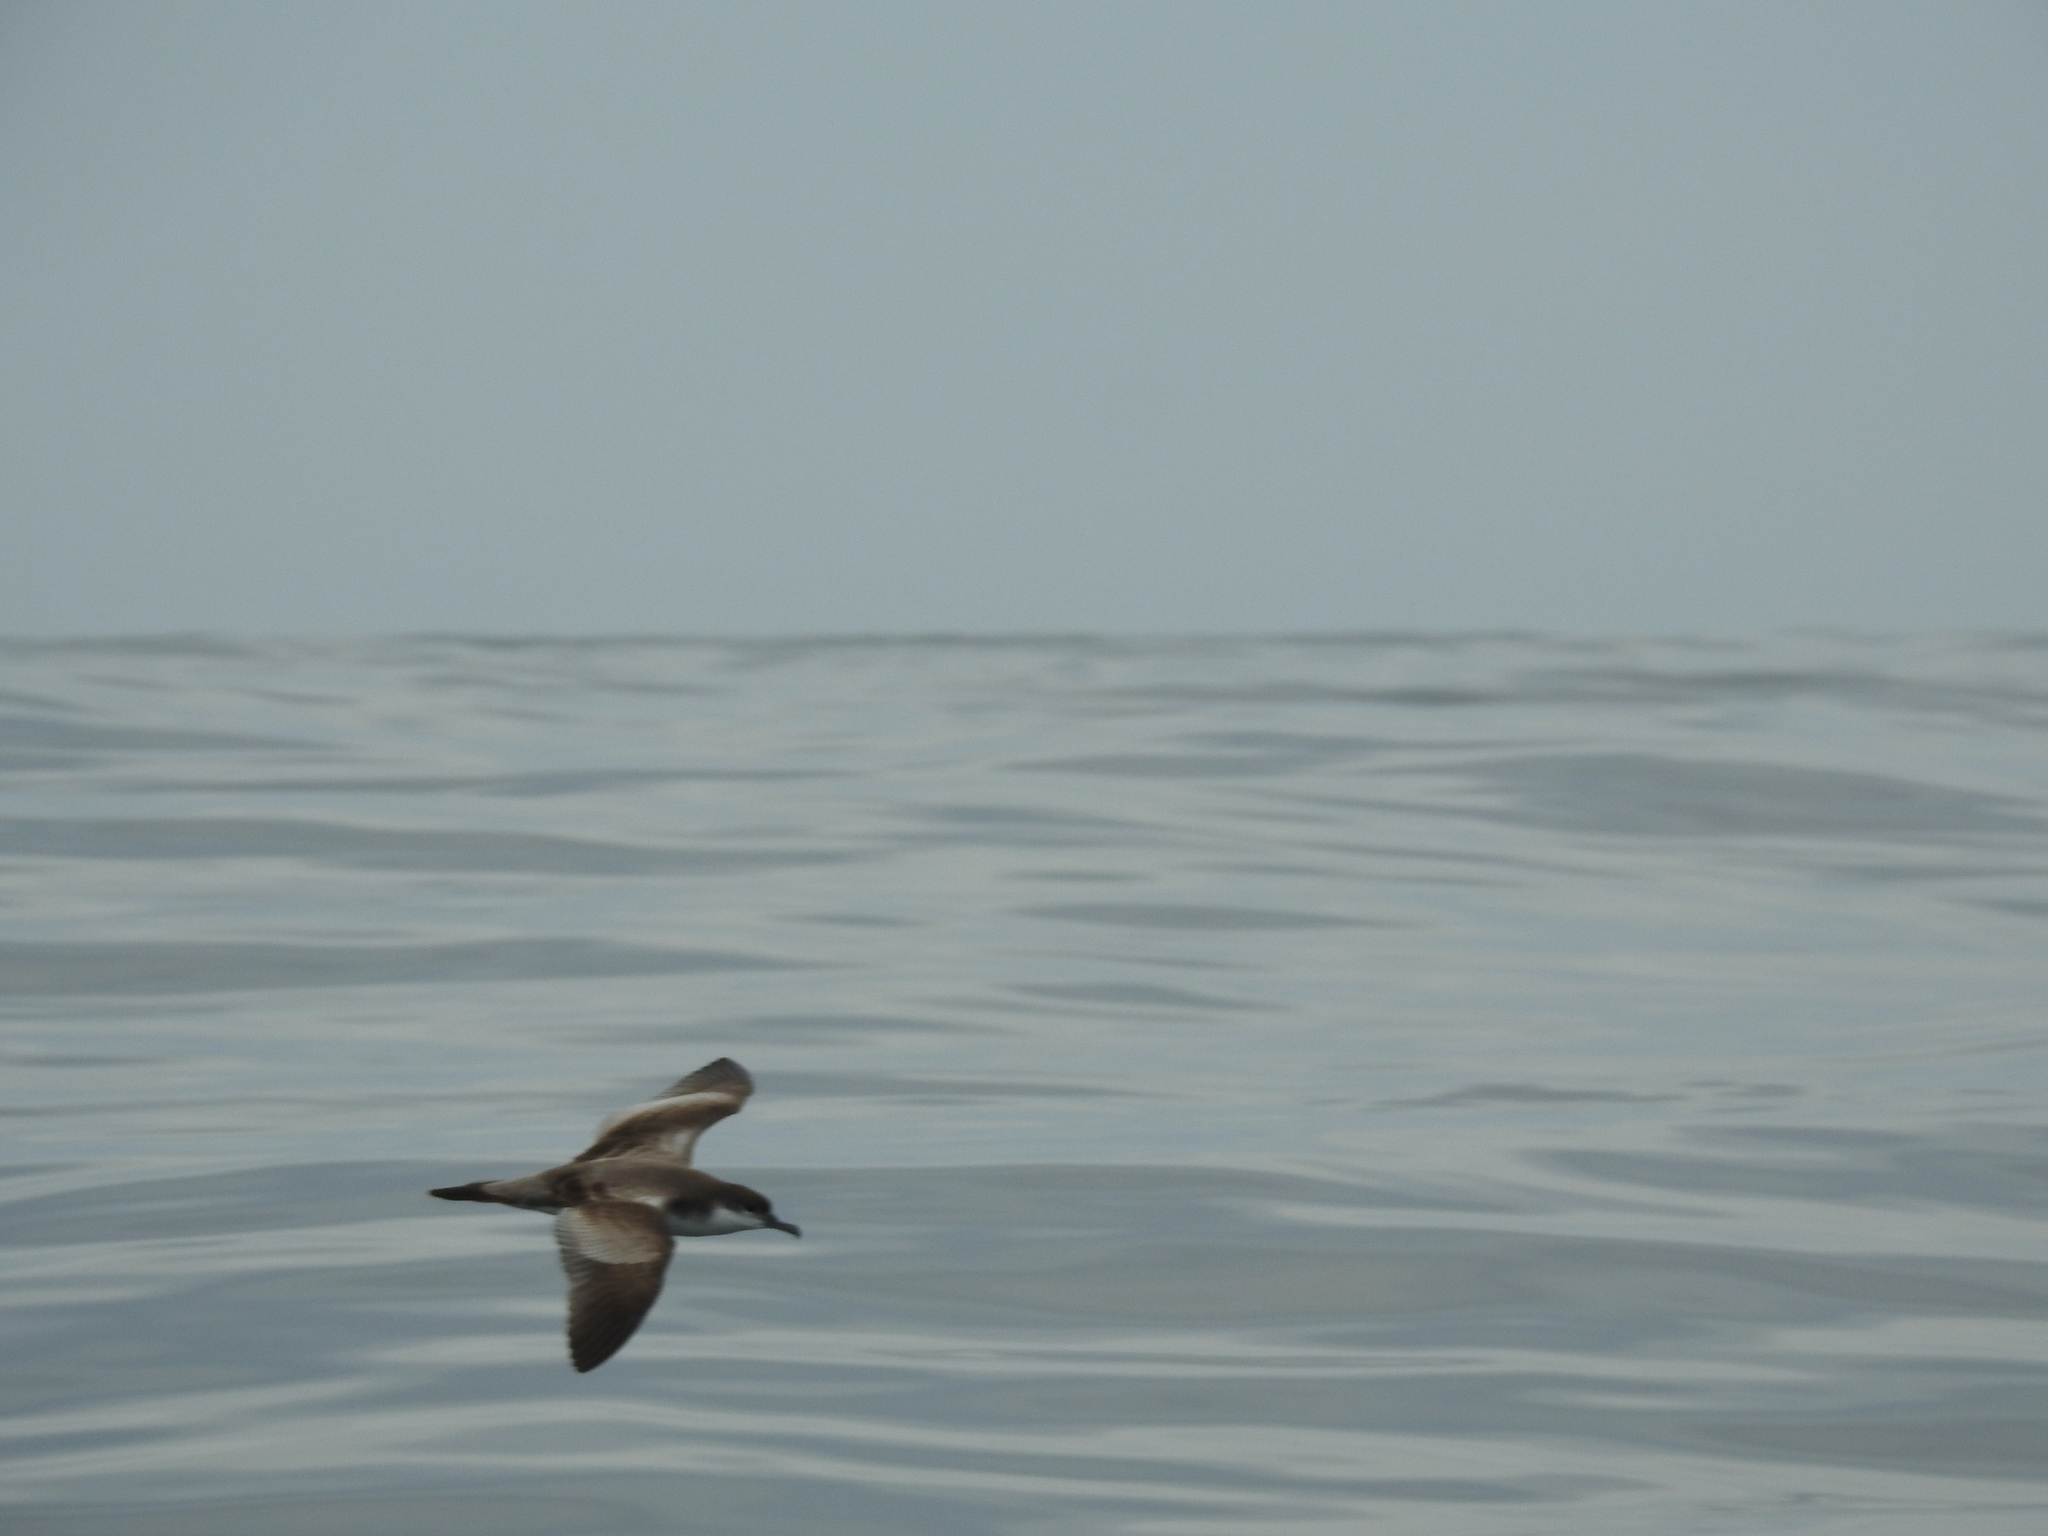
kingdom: Animalia
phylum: Chordata
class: Aves
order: Procellariiformes
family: Procellariidae
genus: Puffinus
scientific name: Puffinus bulleri
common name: Buller's shearwater
